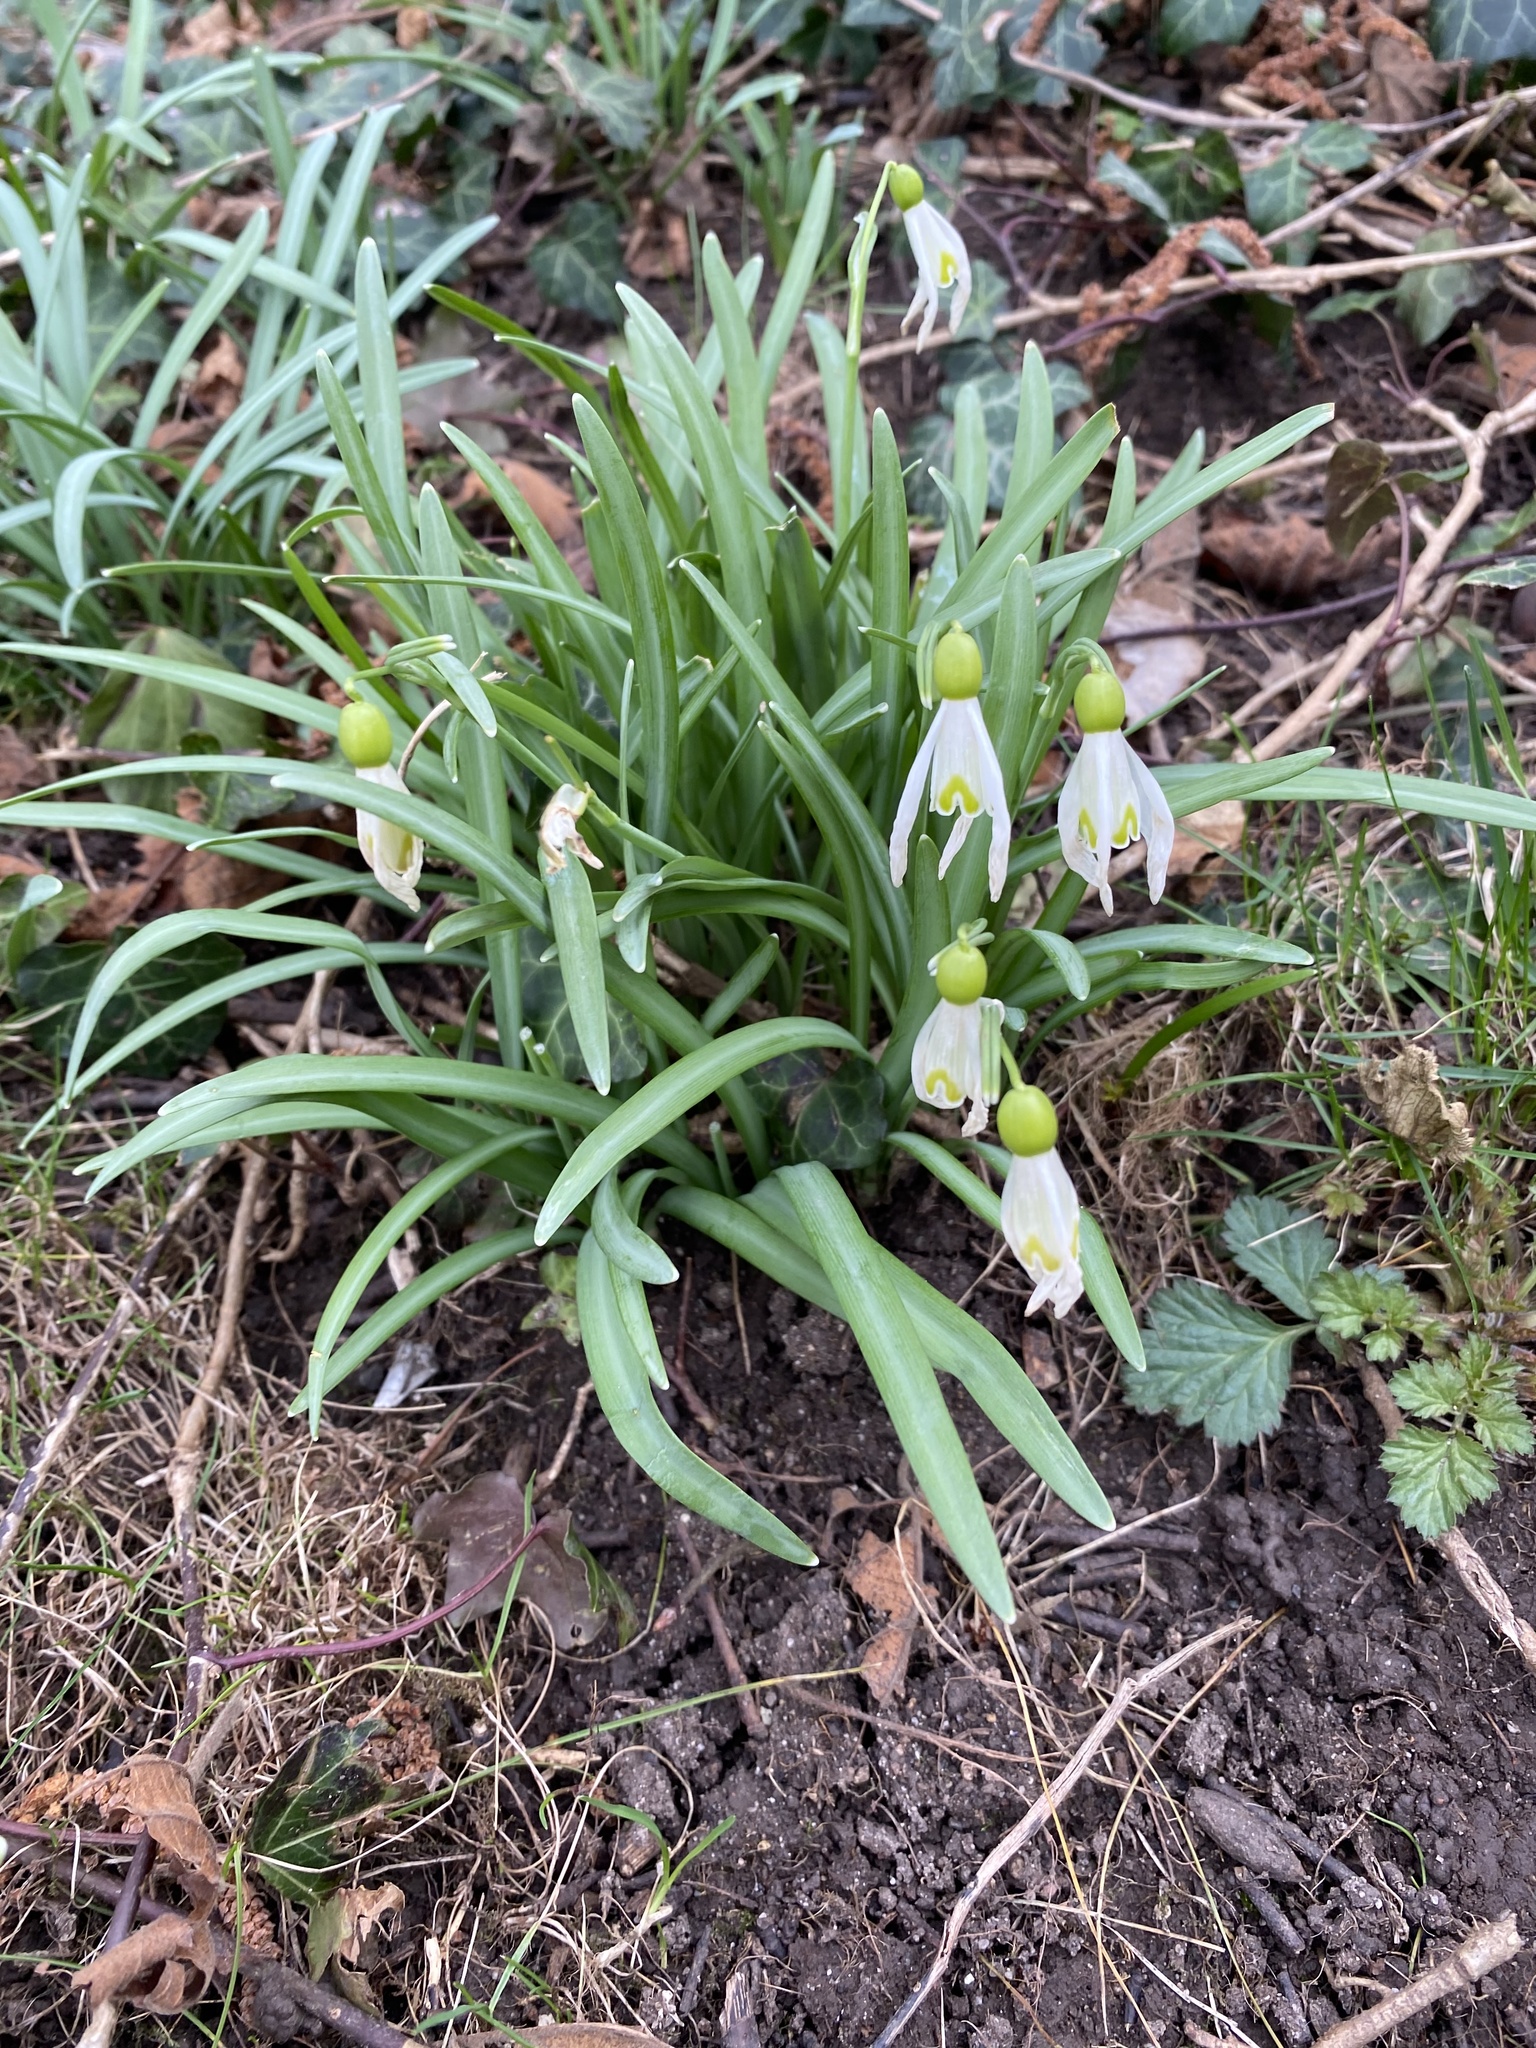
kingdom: Plantae
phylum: Tracheophyta
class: Liliopsida
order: Asparagales
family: Amaryllidaceae
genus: Galanthus
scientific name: Galanthus nivalis
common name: Snowdrop
